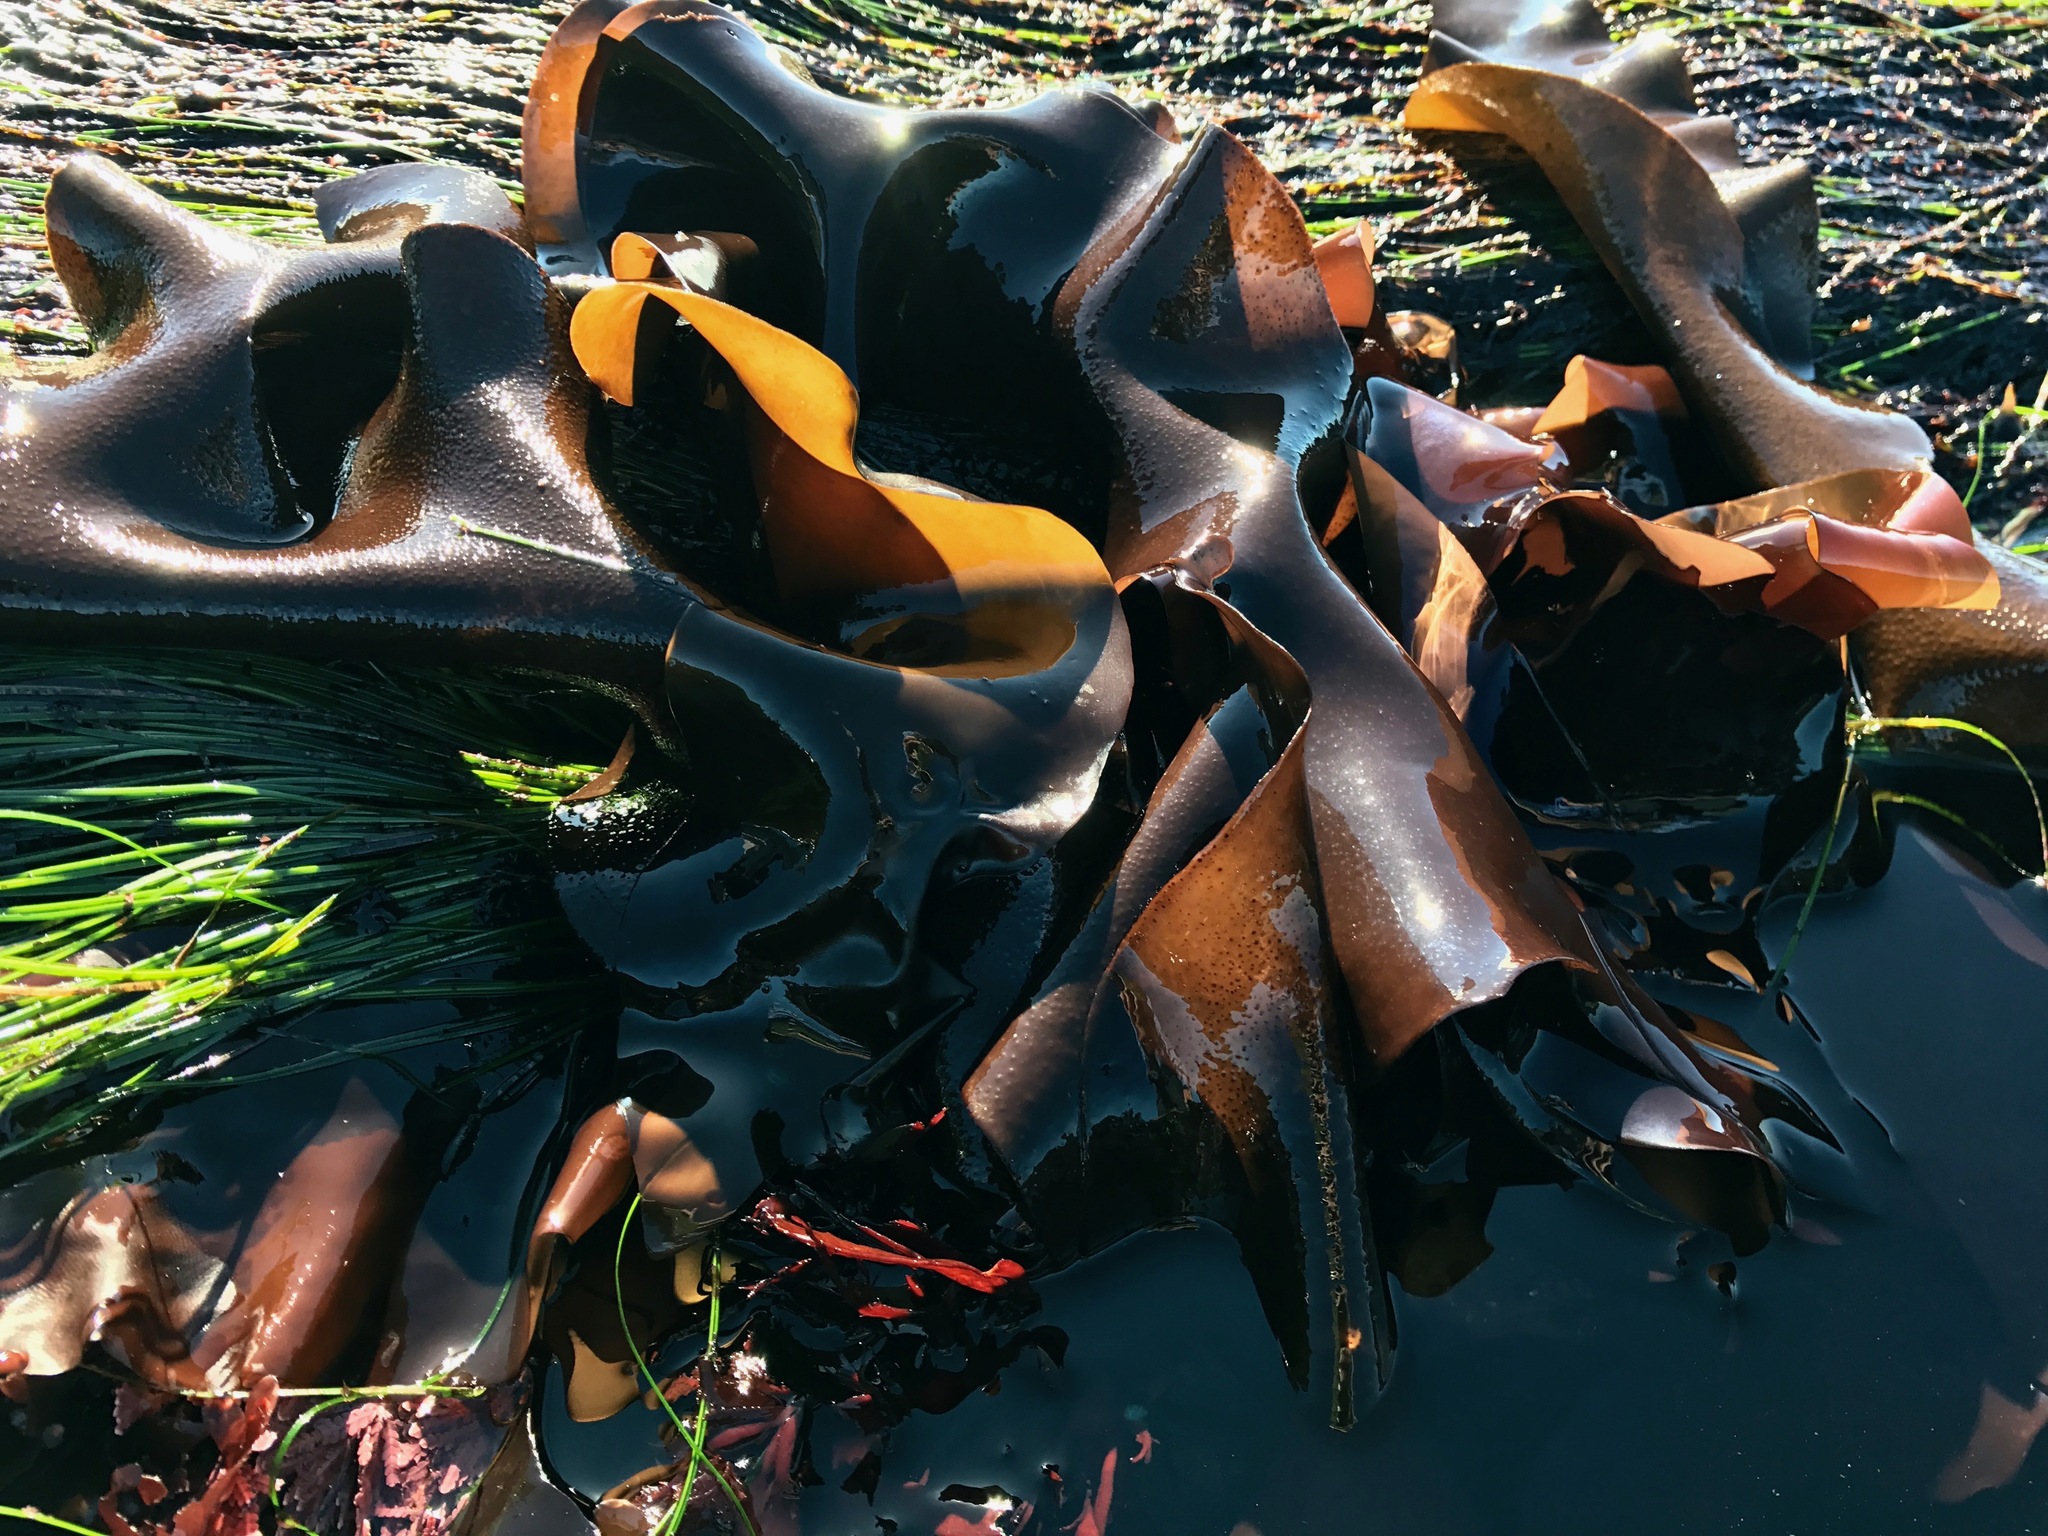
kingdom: Plantae
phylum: Rhodophyta
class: Florideophyceae
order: Gigartinales
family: Gigartinaceae
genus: Mazzaella
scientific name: Mazzaella splendens
